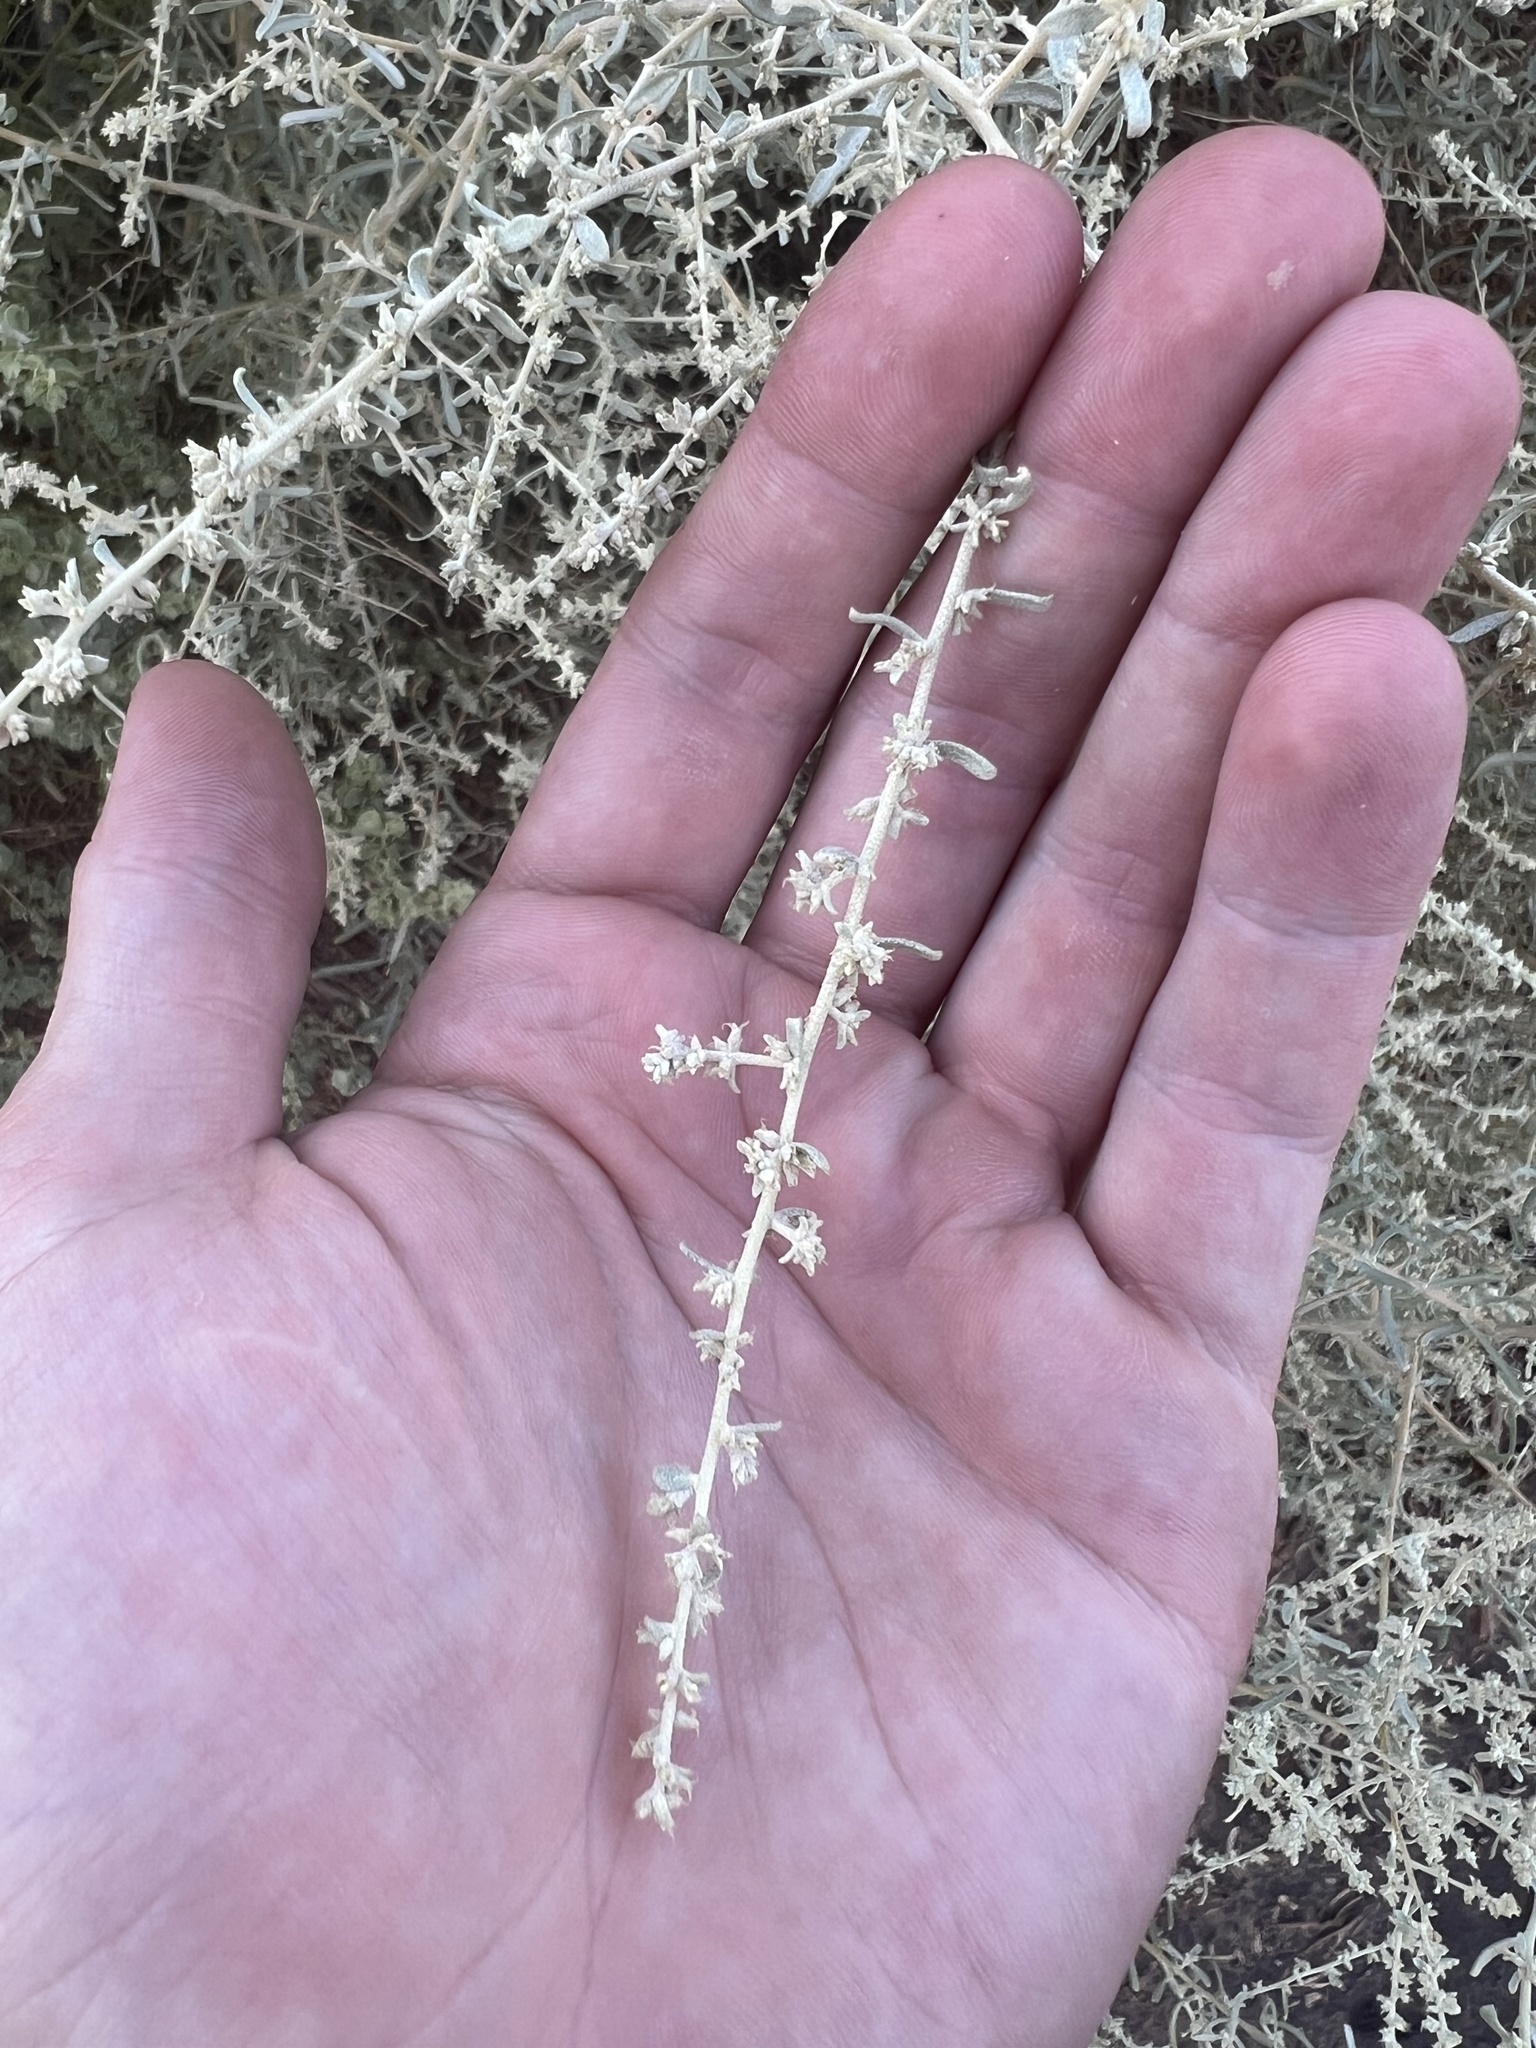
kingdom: Plantae
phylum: Tracheophyta
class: Magnoliopsida
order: Caryophyllales
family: Amaranthaceae
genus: Atriplex
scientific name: Atriplex polycarpa
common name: Desert saltbush
